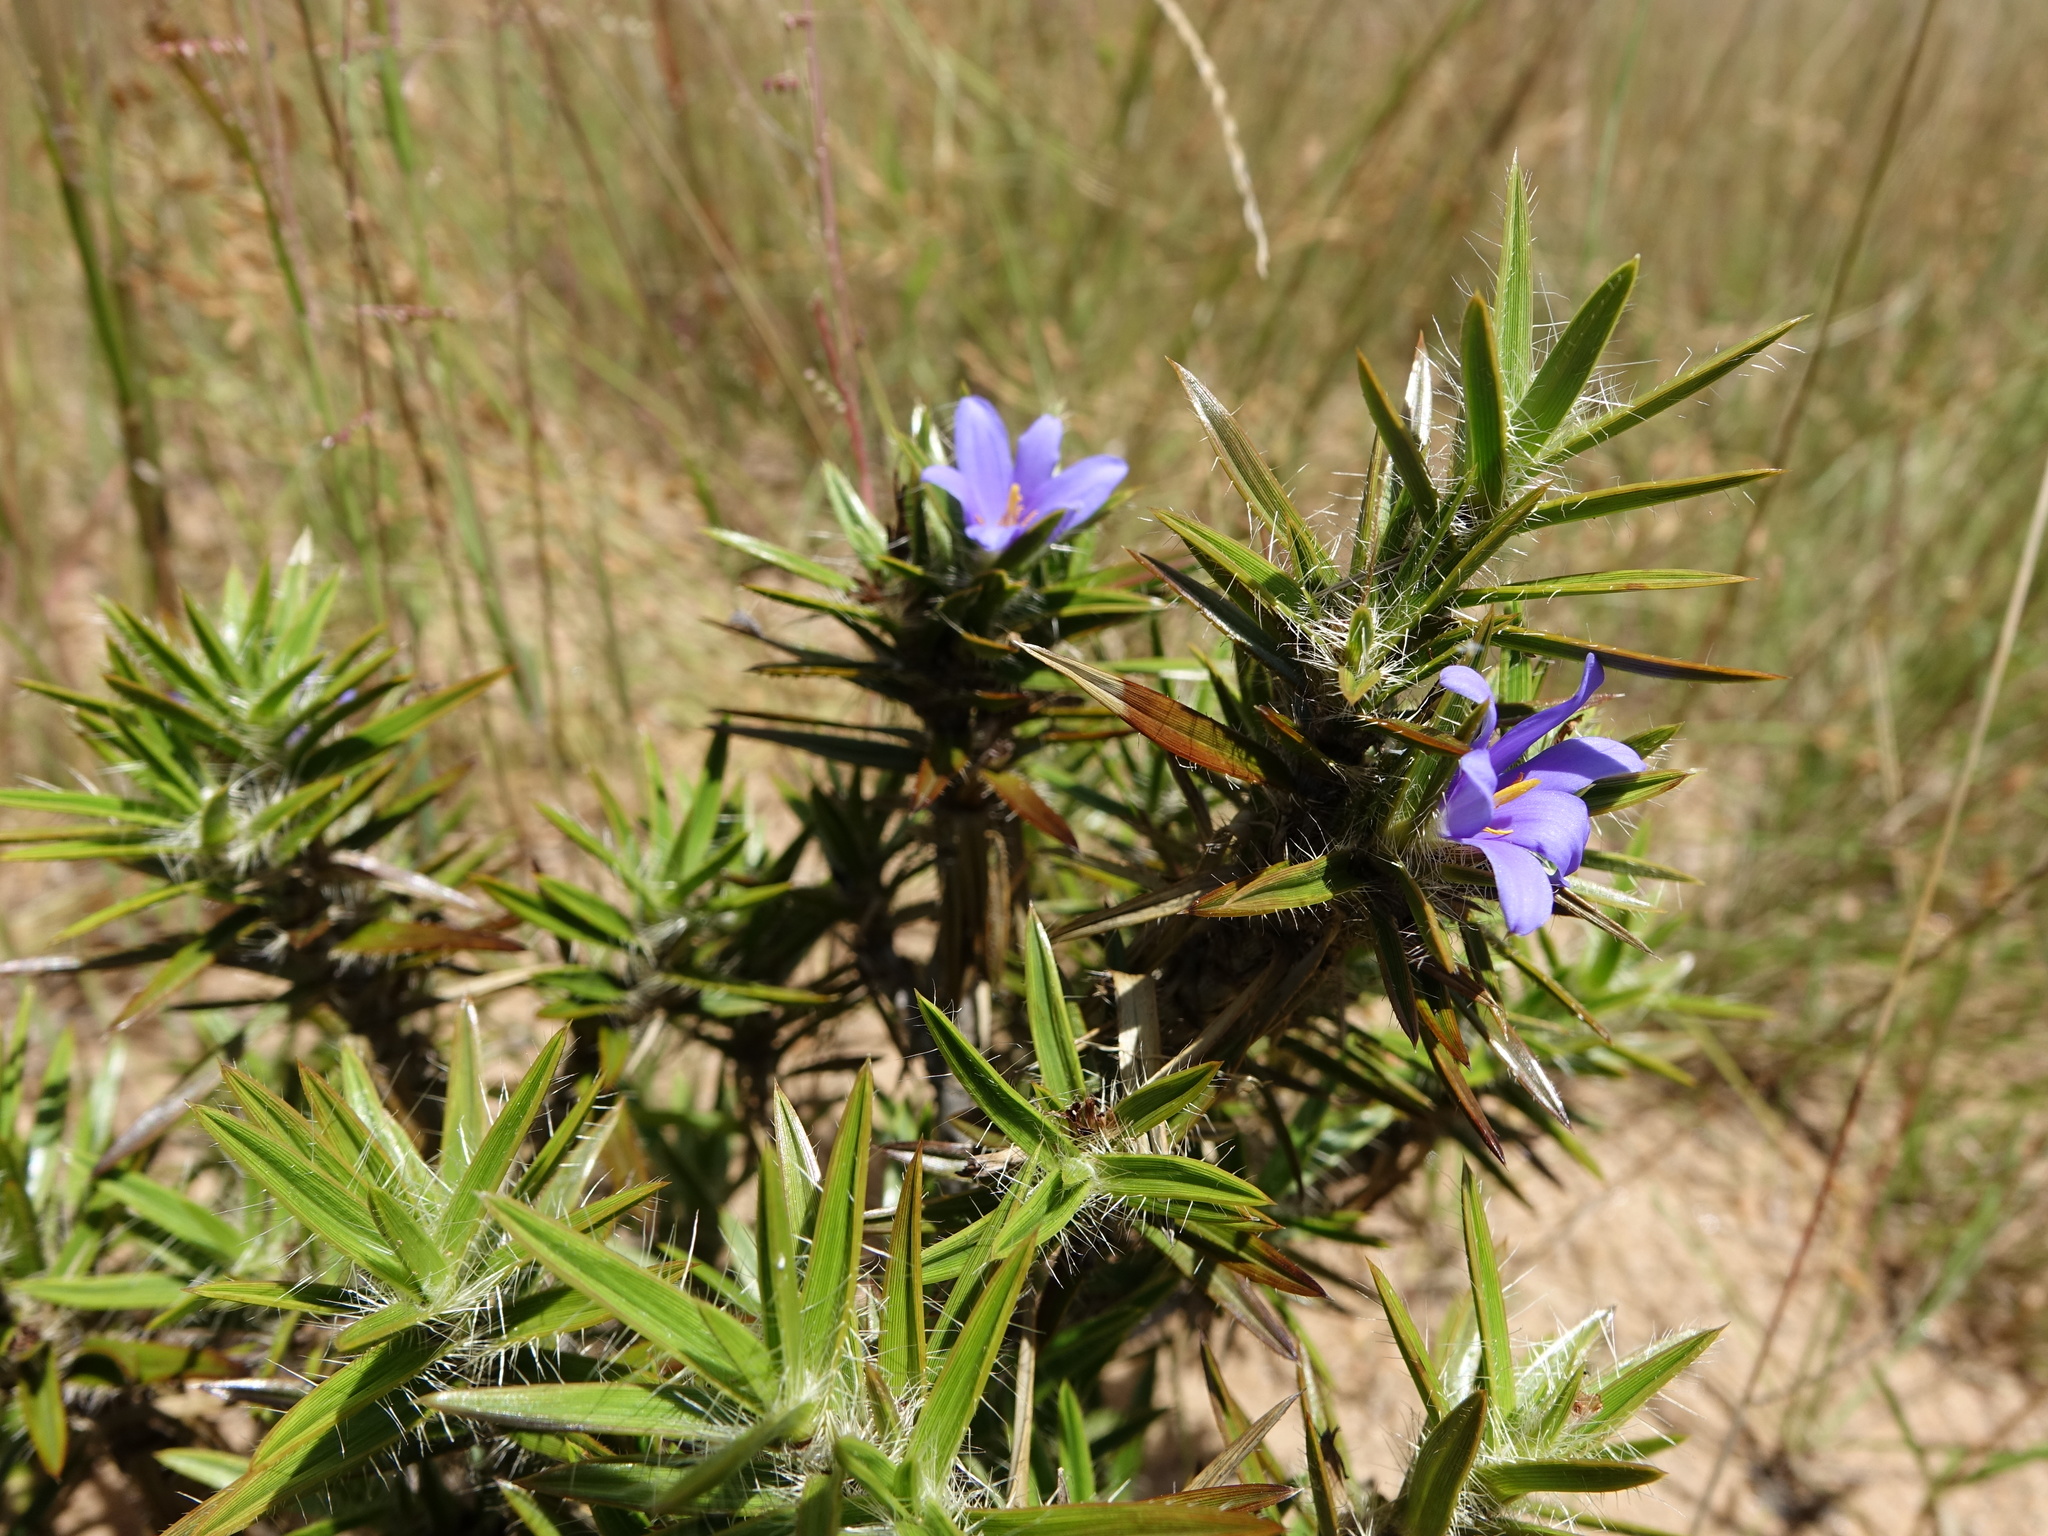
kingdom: Plantae
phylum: Tracheophyta
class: Liliopsida
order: Pandanales
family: Velloziaceae
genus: Xerophyta
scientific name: Xerophyta setosa
